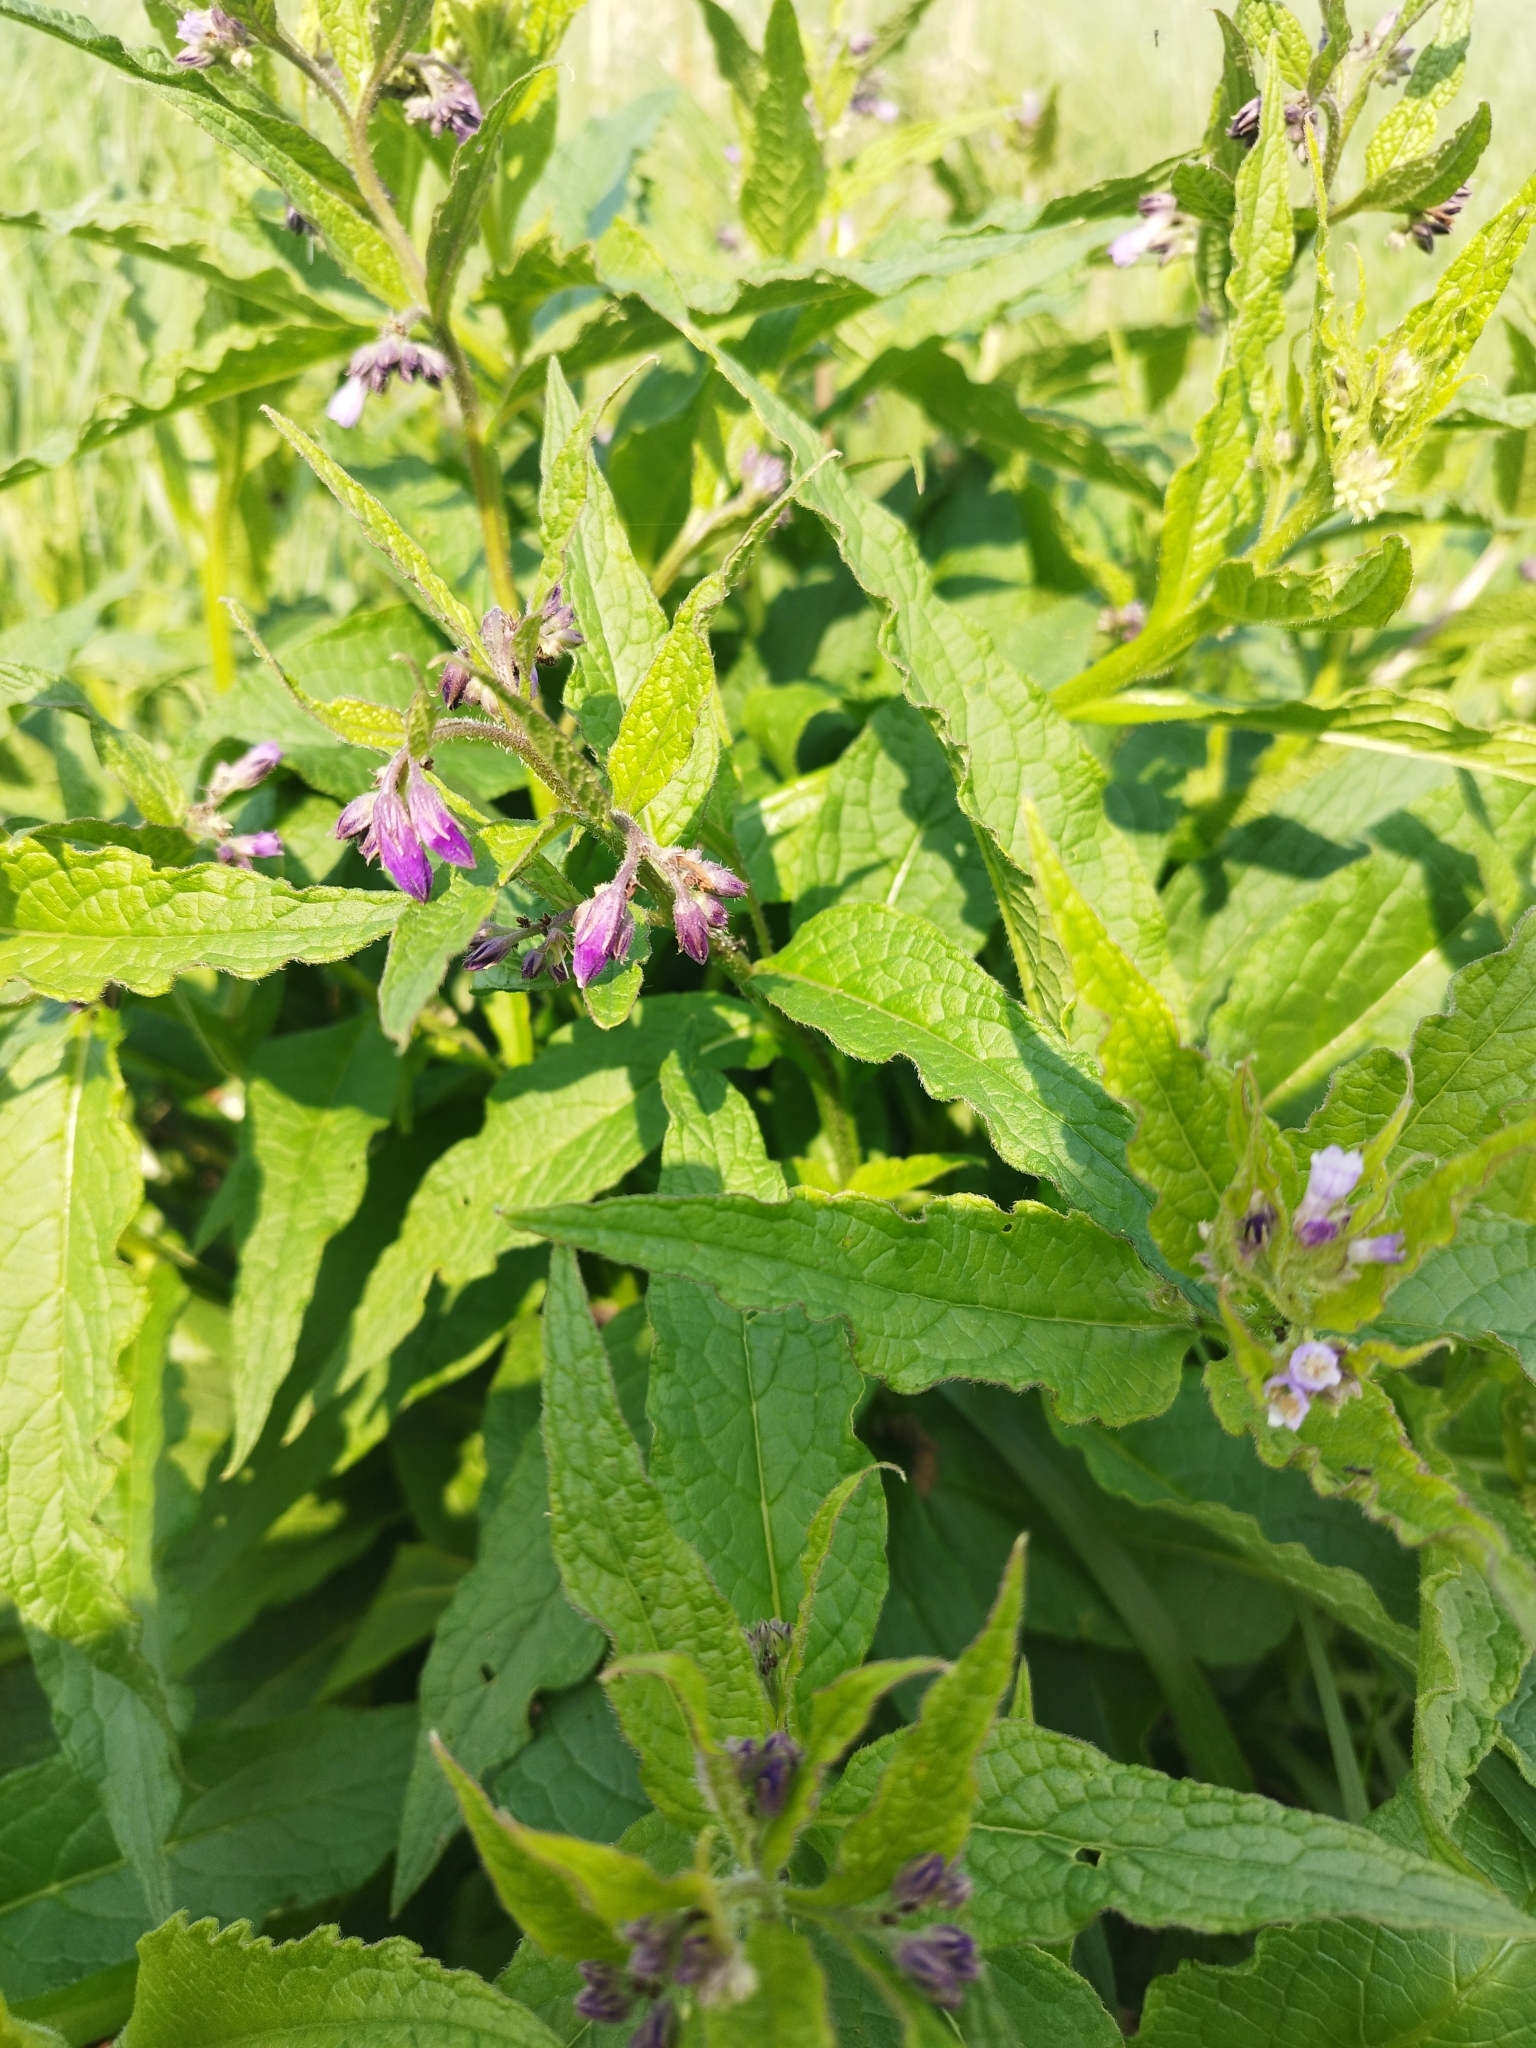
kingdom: Plantae
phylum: Tracheophyta
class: Magnoliopsida
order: Boraginales
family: Boraginaceae
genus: Symphytum
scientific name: Symphytum officinale
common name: Common comfrey
